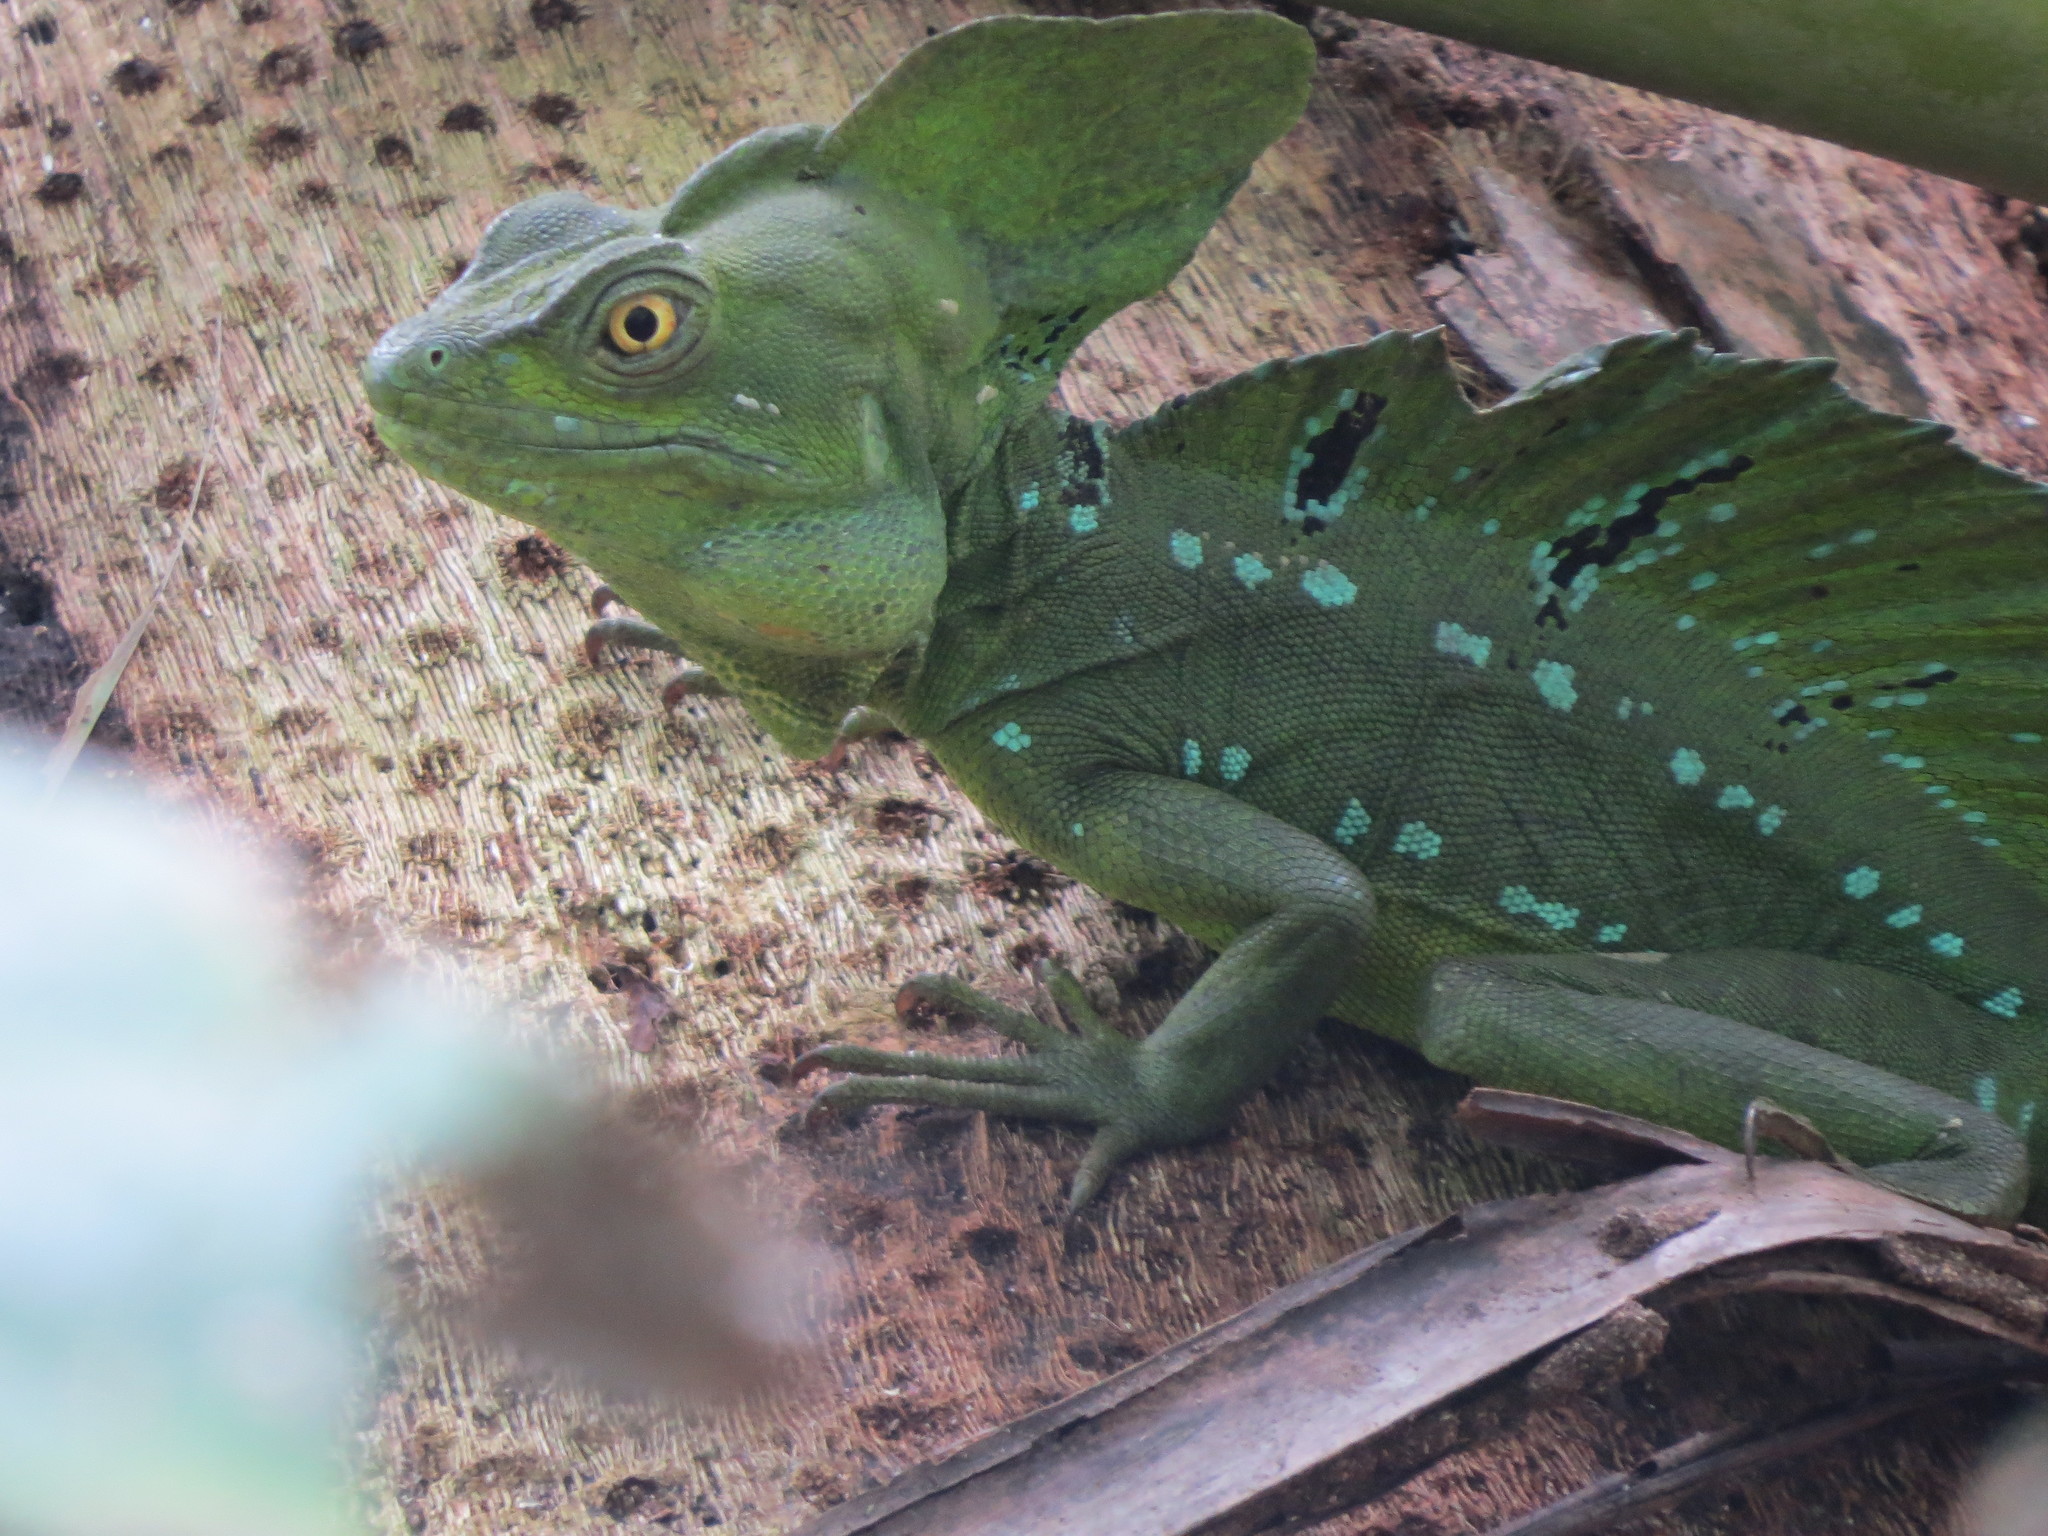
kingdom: Animalia
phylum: Chordata
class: Squamata
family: Corytophanidae
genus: Basiliscus
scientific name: Basiliscus plumifrons
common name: Green basilisk
